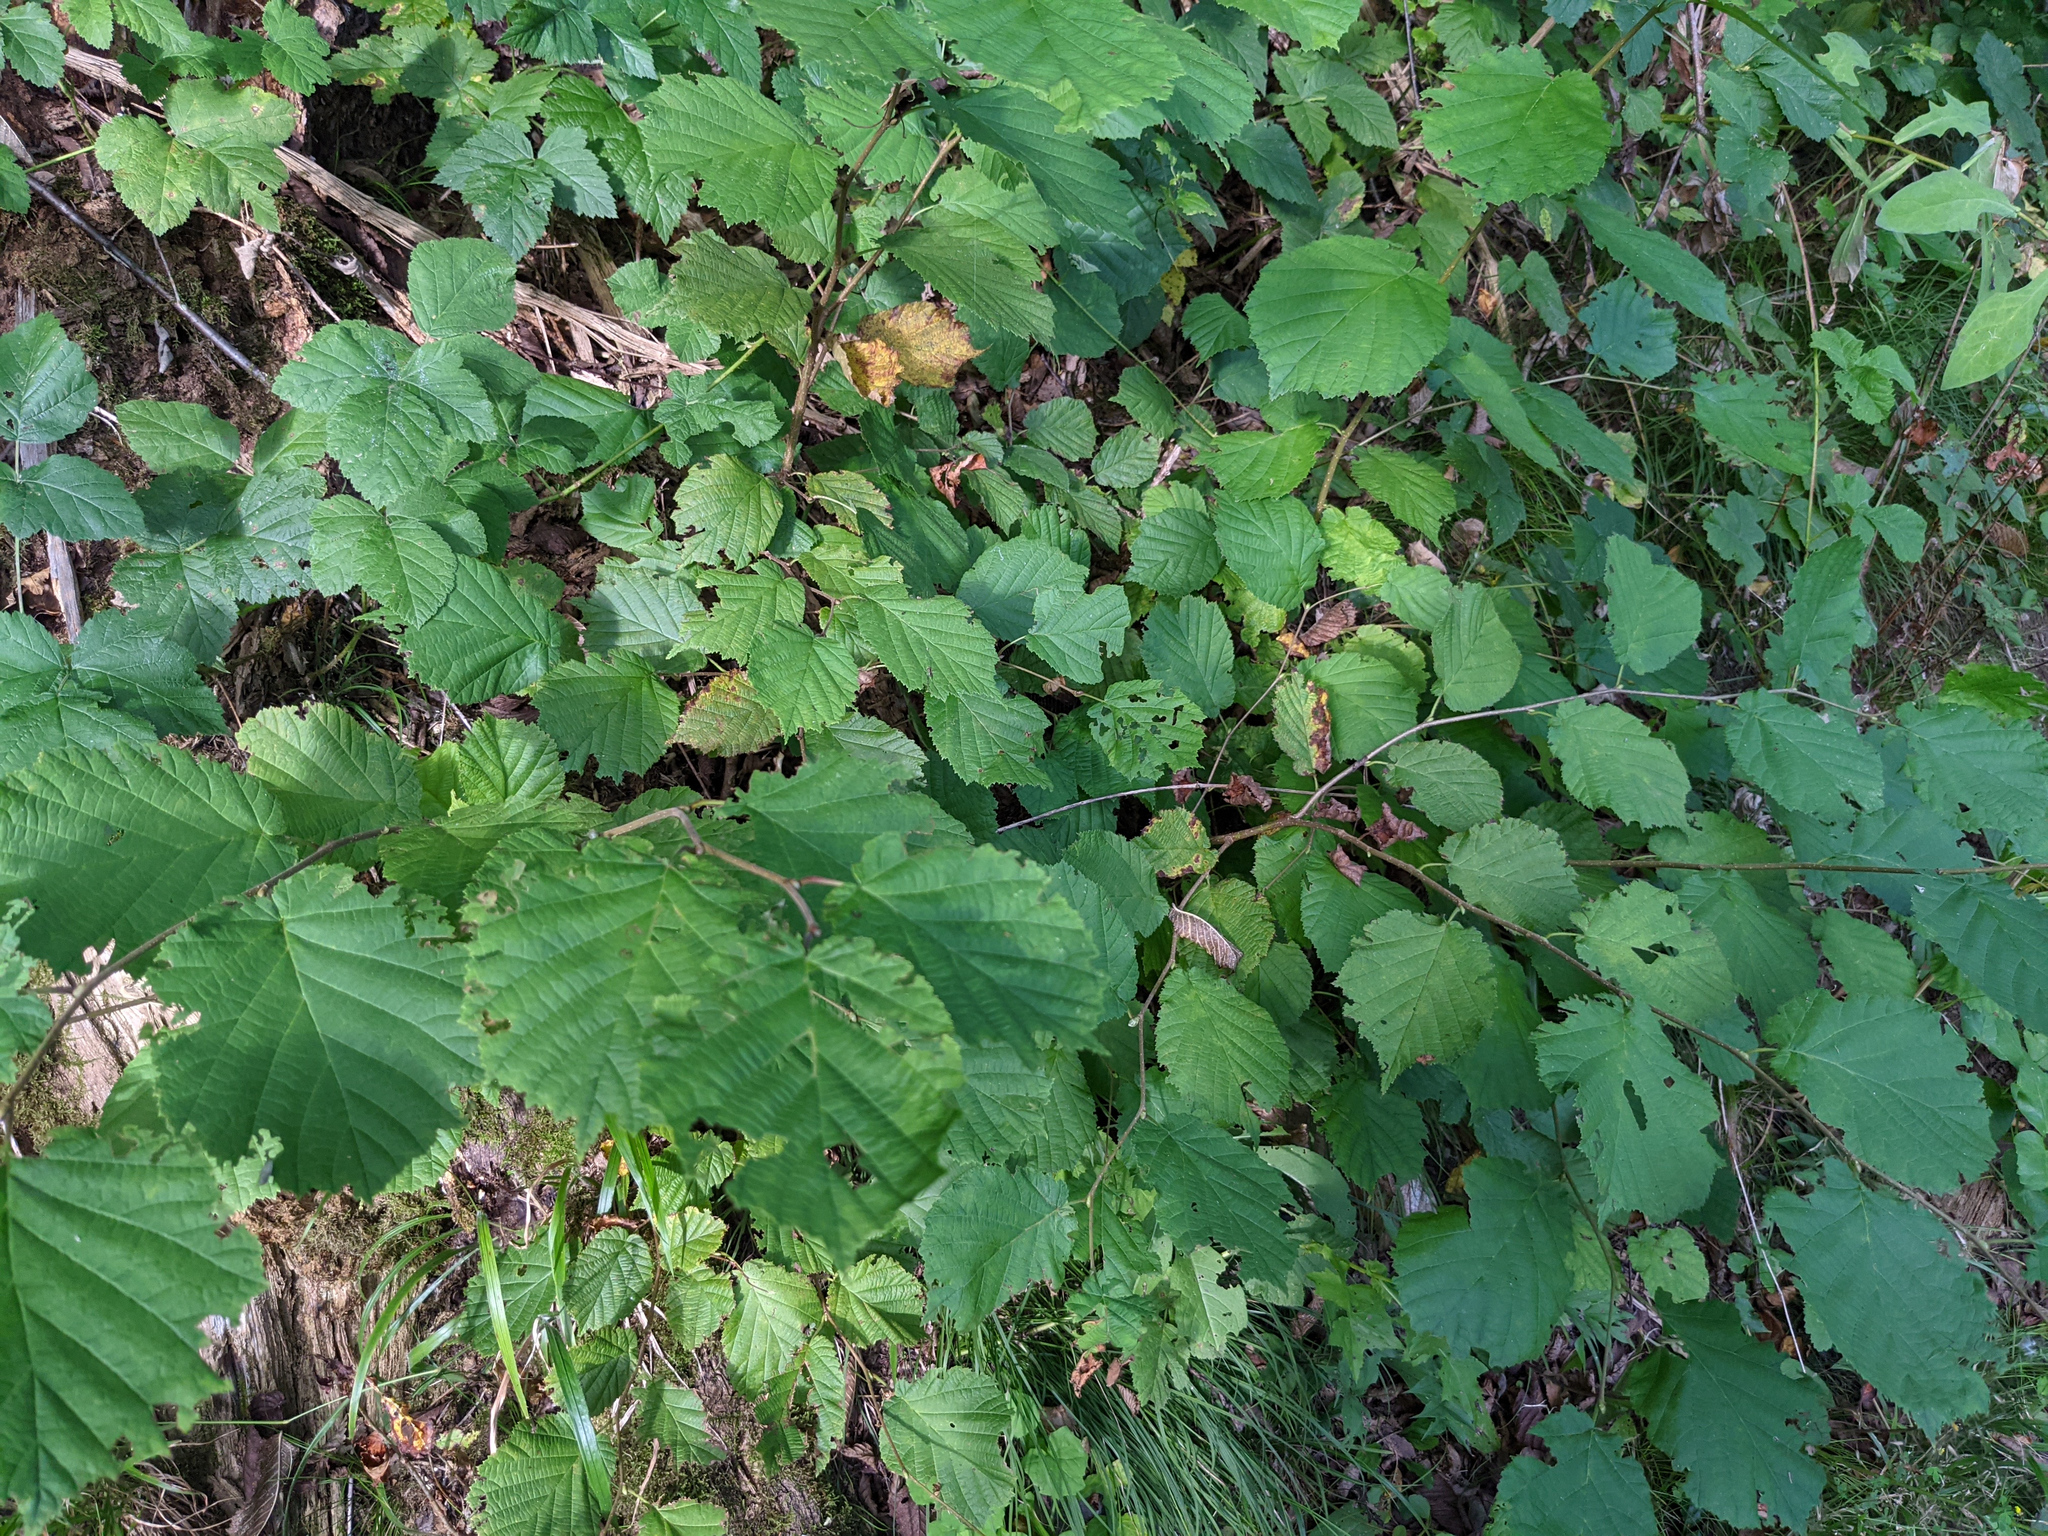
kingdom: Plantae
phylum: Tracheophyta
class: Magnoliopsida
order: Fagales
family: Betulaceae
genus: Corylus
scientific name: Corylus avellana
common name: European hazel
